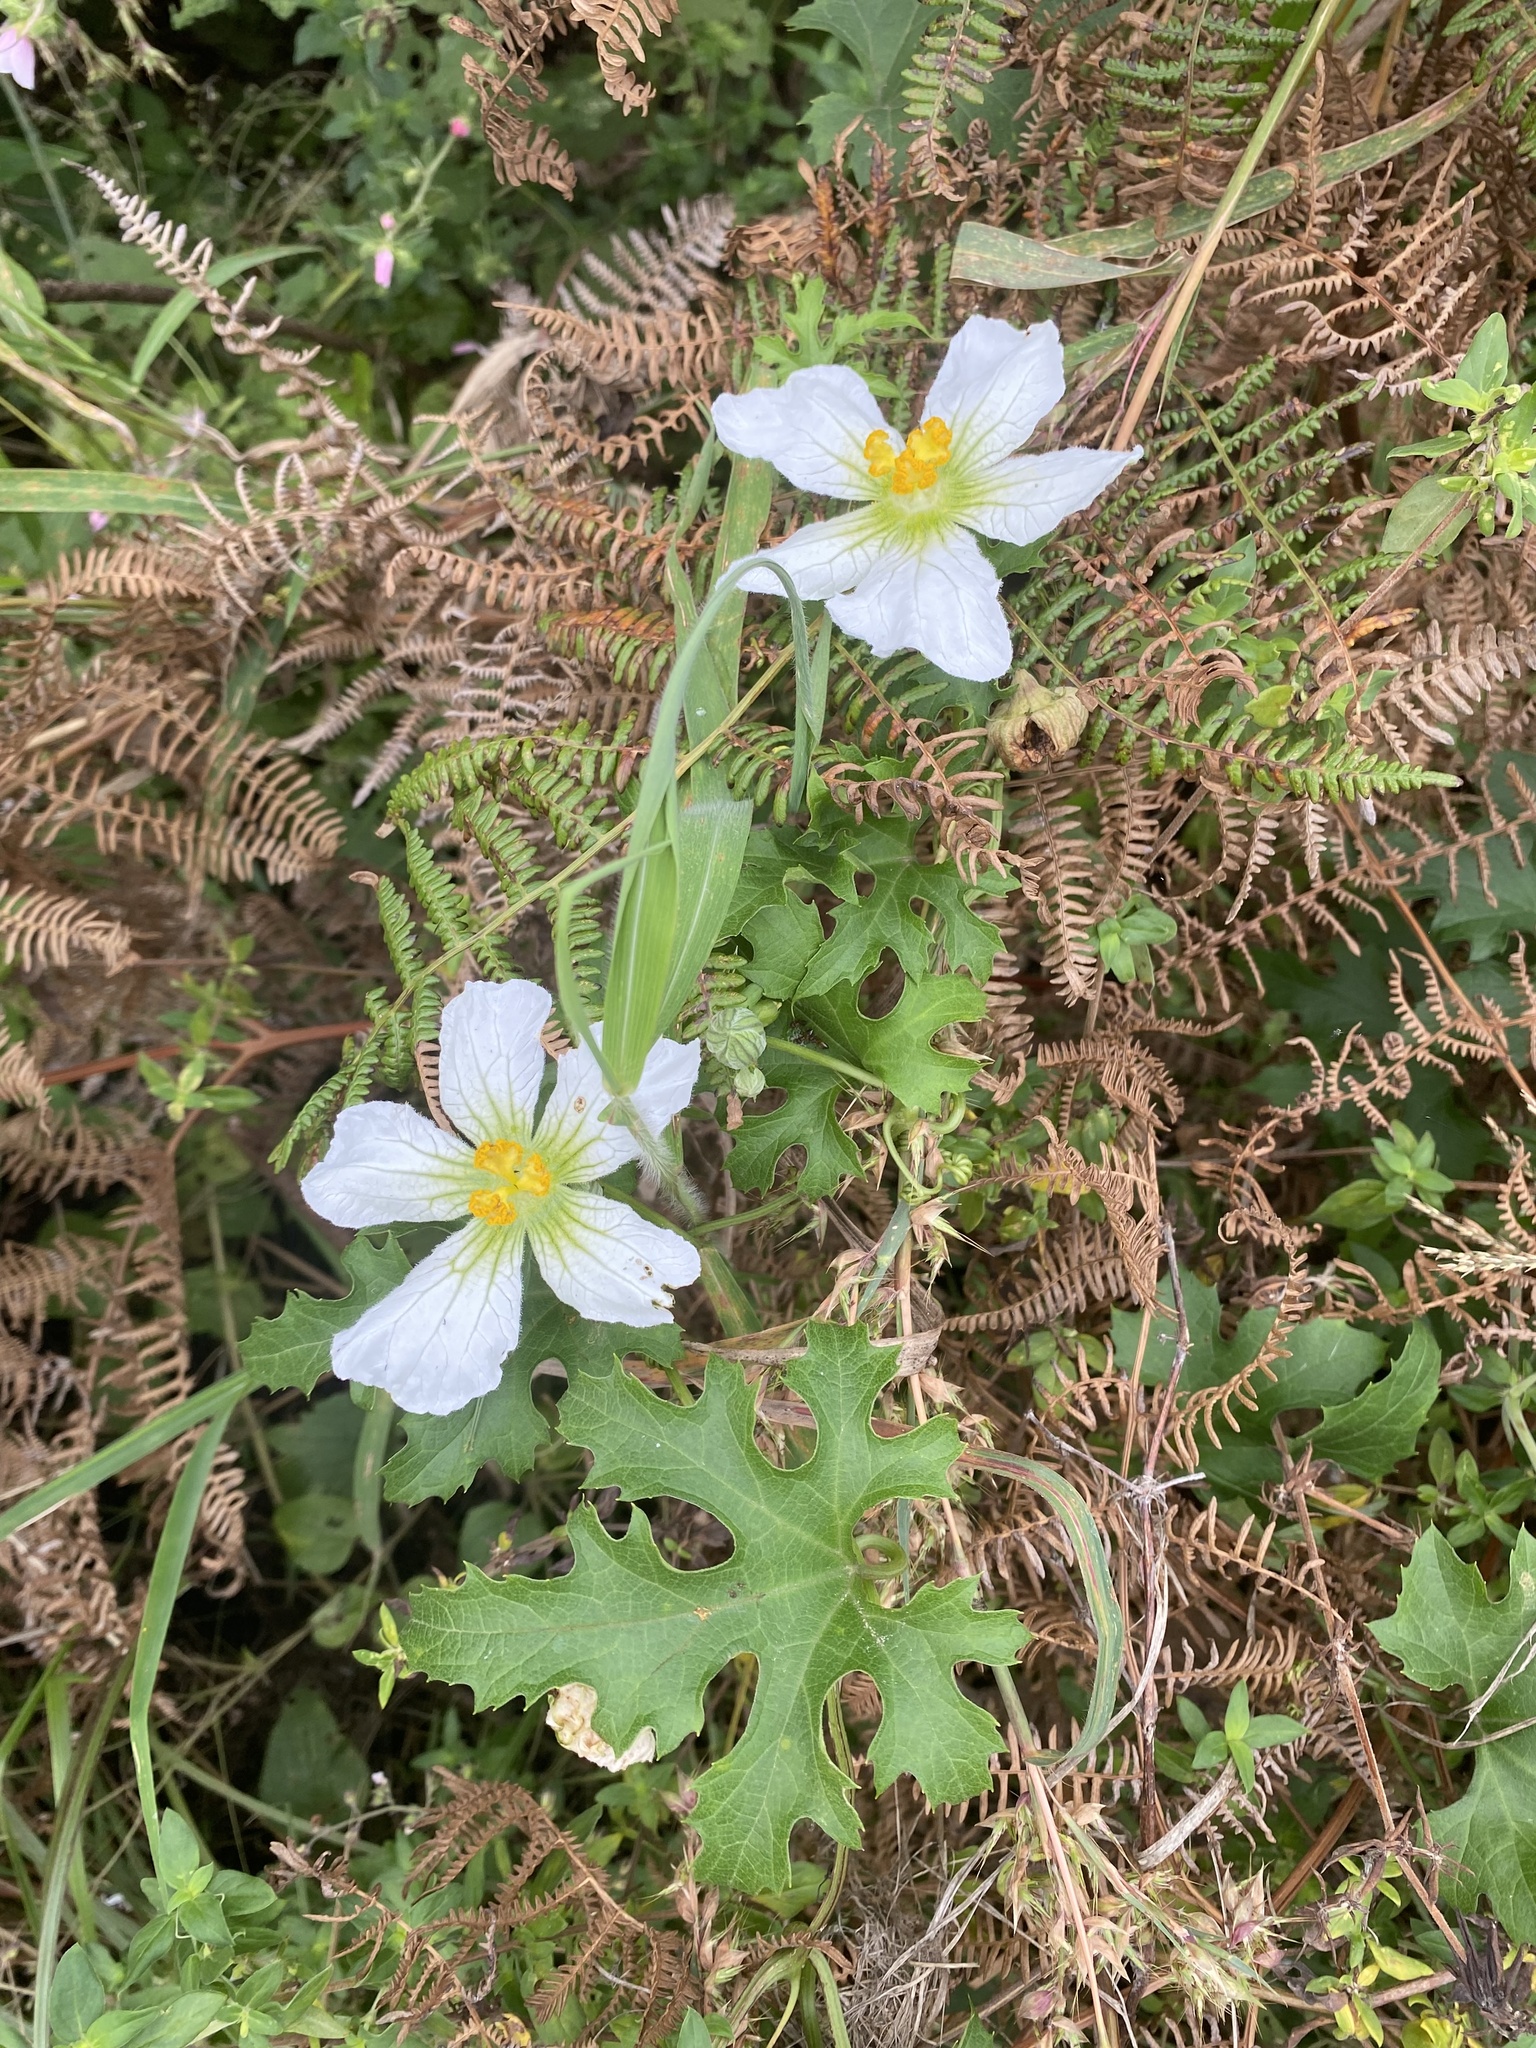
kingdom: Plantae
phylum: Tracheophyta
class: Magnoliopsida
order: Cucurbitales
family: Cucurbitaceae
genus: Lagenaria
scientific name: Lagenaria sphaerica
